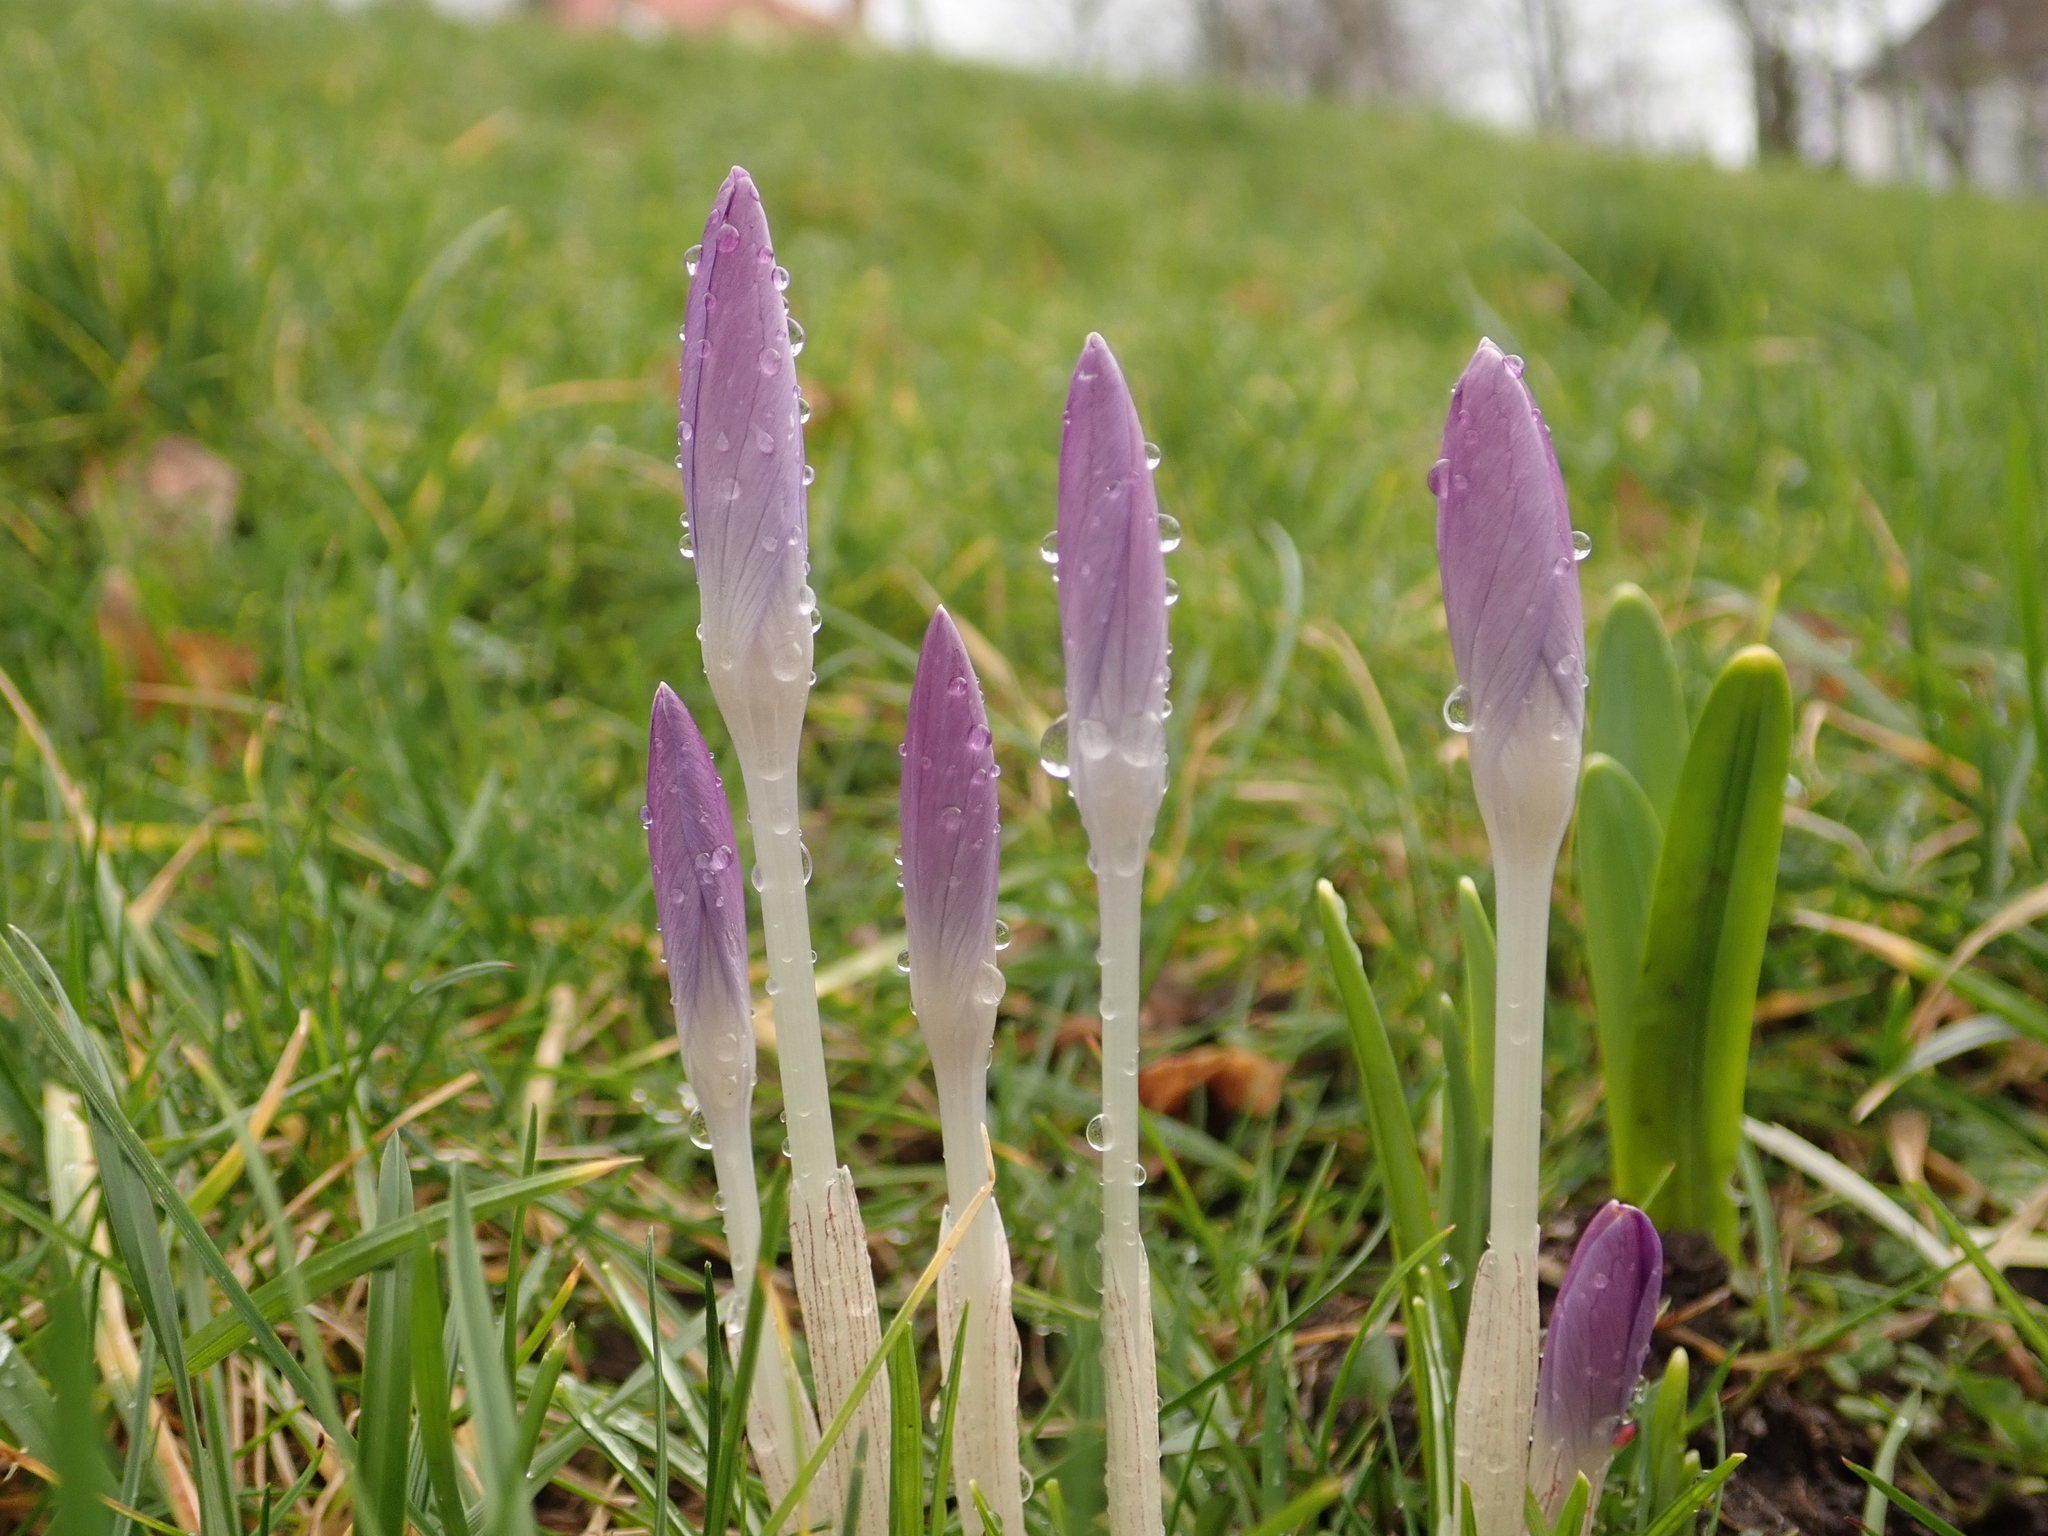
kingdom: Plantae
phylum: Tracheophyta
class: Liliopsida
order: Asparagales
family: Iridaceae
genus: Crocus
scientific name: Crocus tommasinianus
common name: Early crocus
